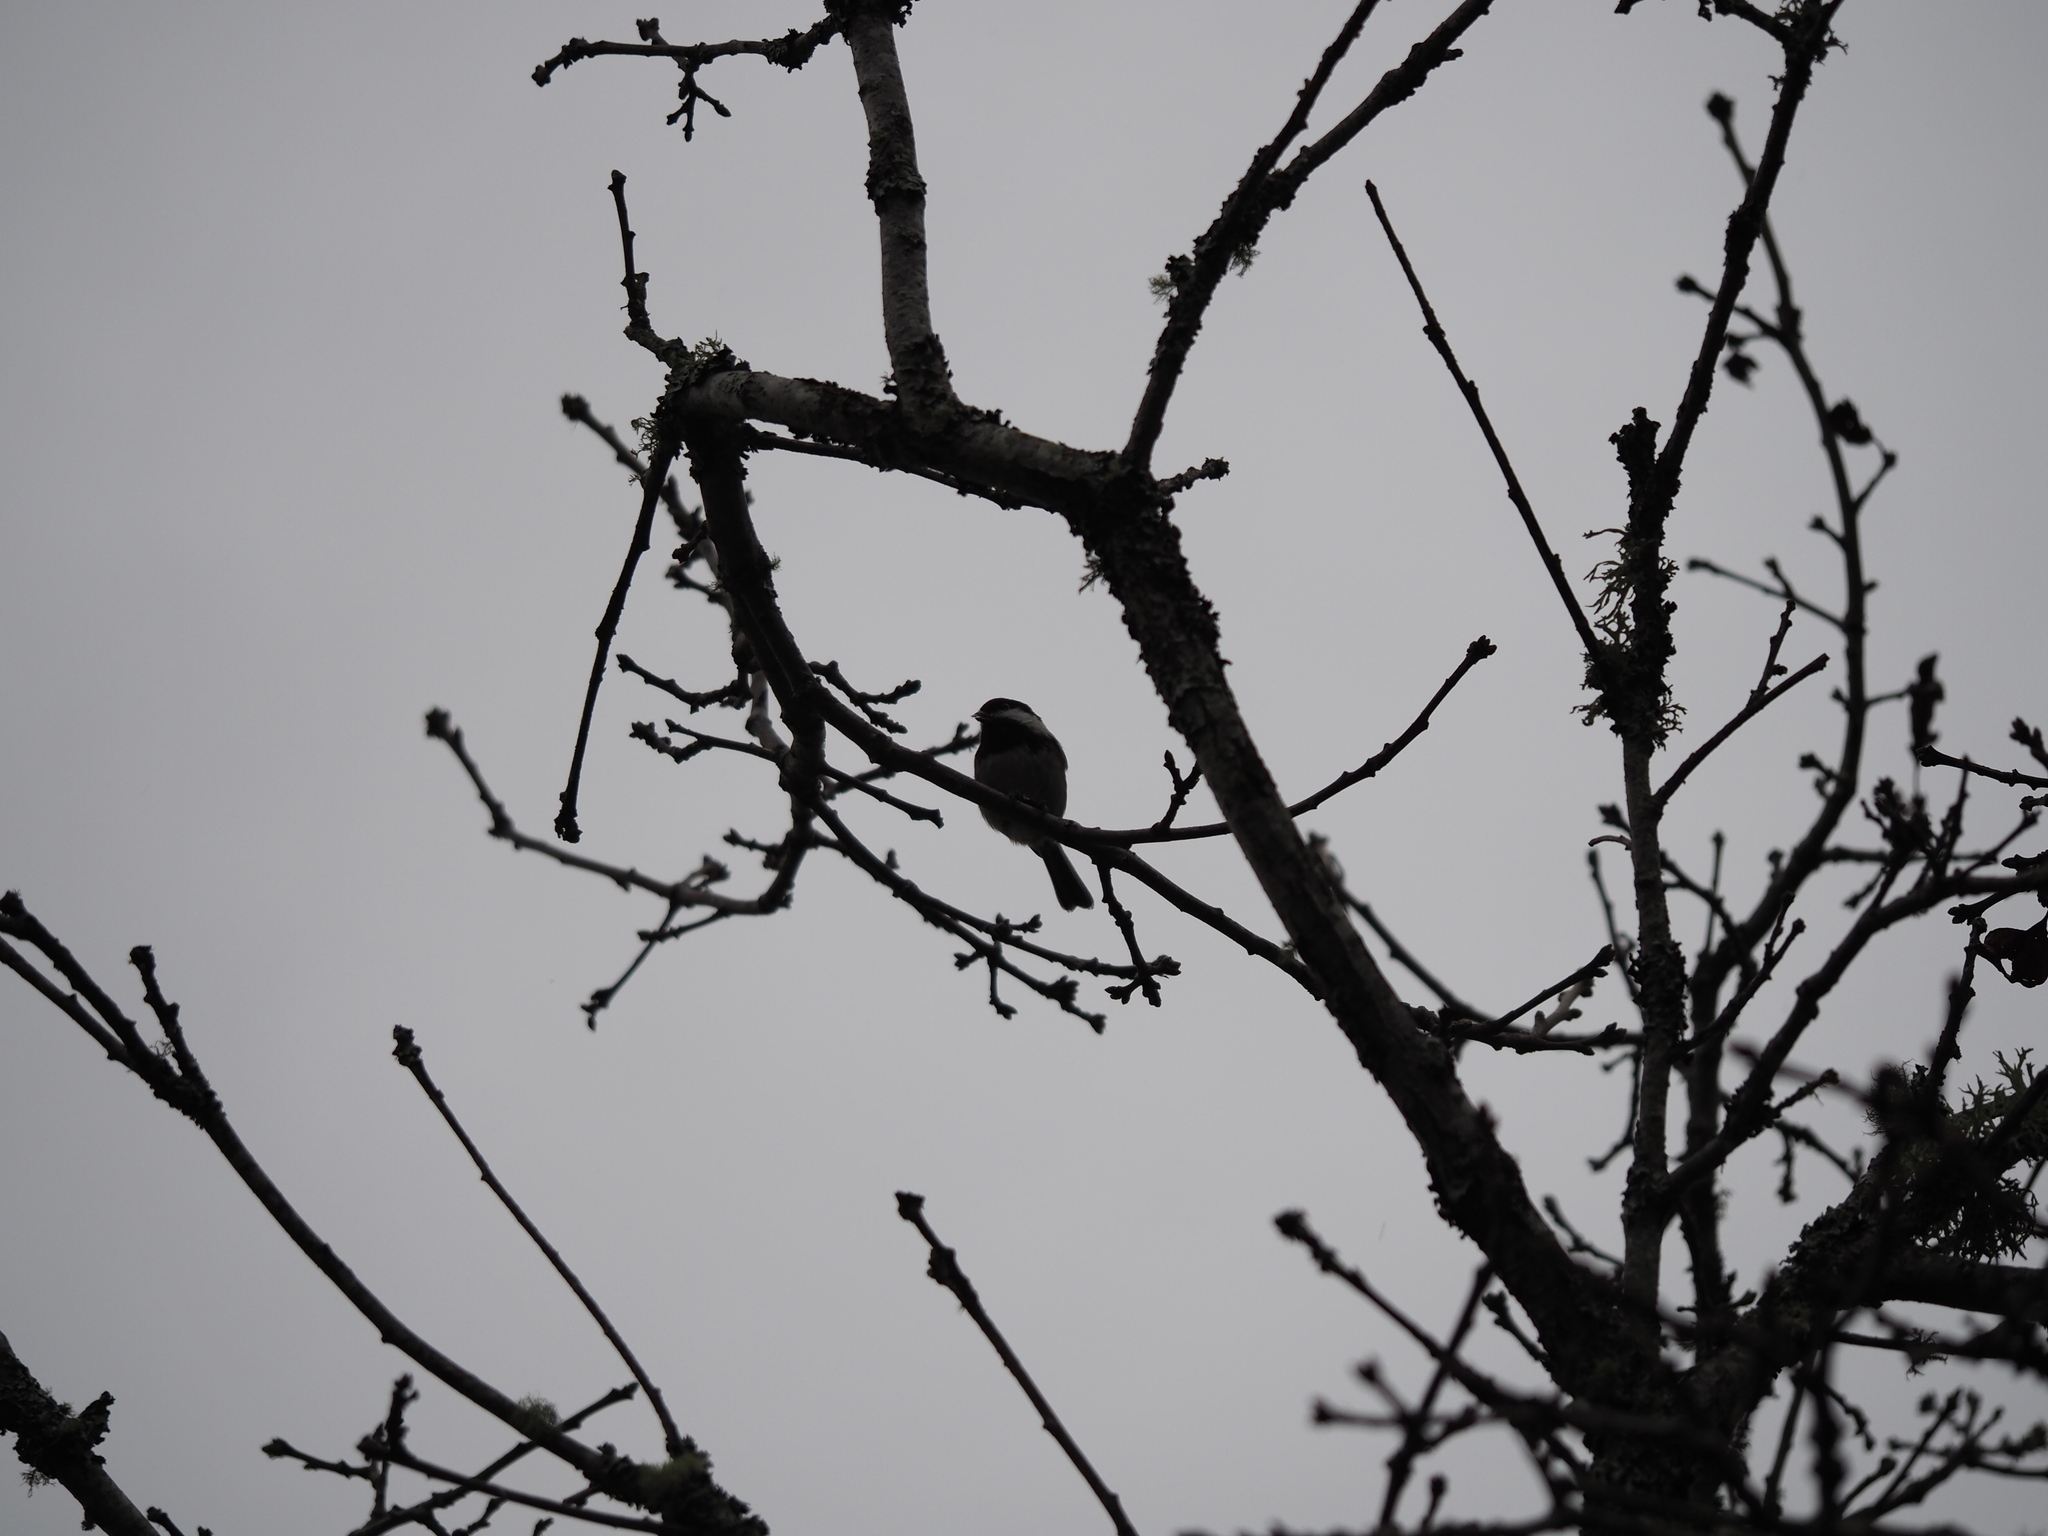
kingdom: Animalia
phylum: Chordata
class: Aves
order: Passeriformes
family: Paridae
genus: Poecile
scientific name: Poecile rufescens
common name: Chestnut-backed chickadee
